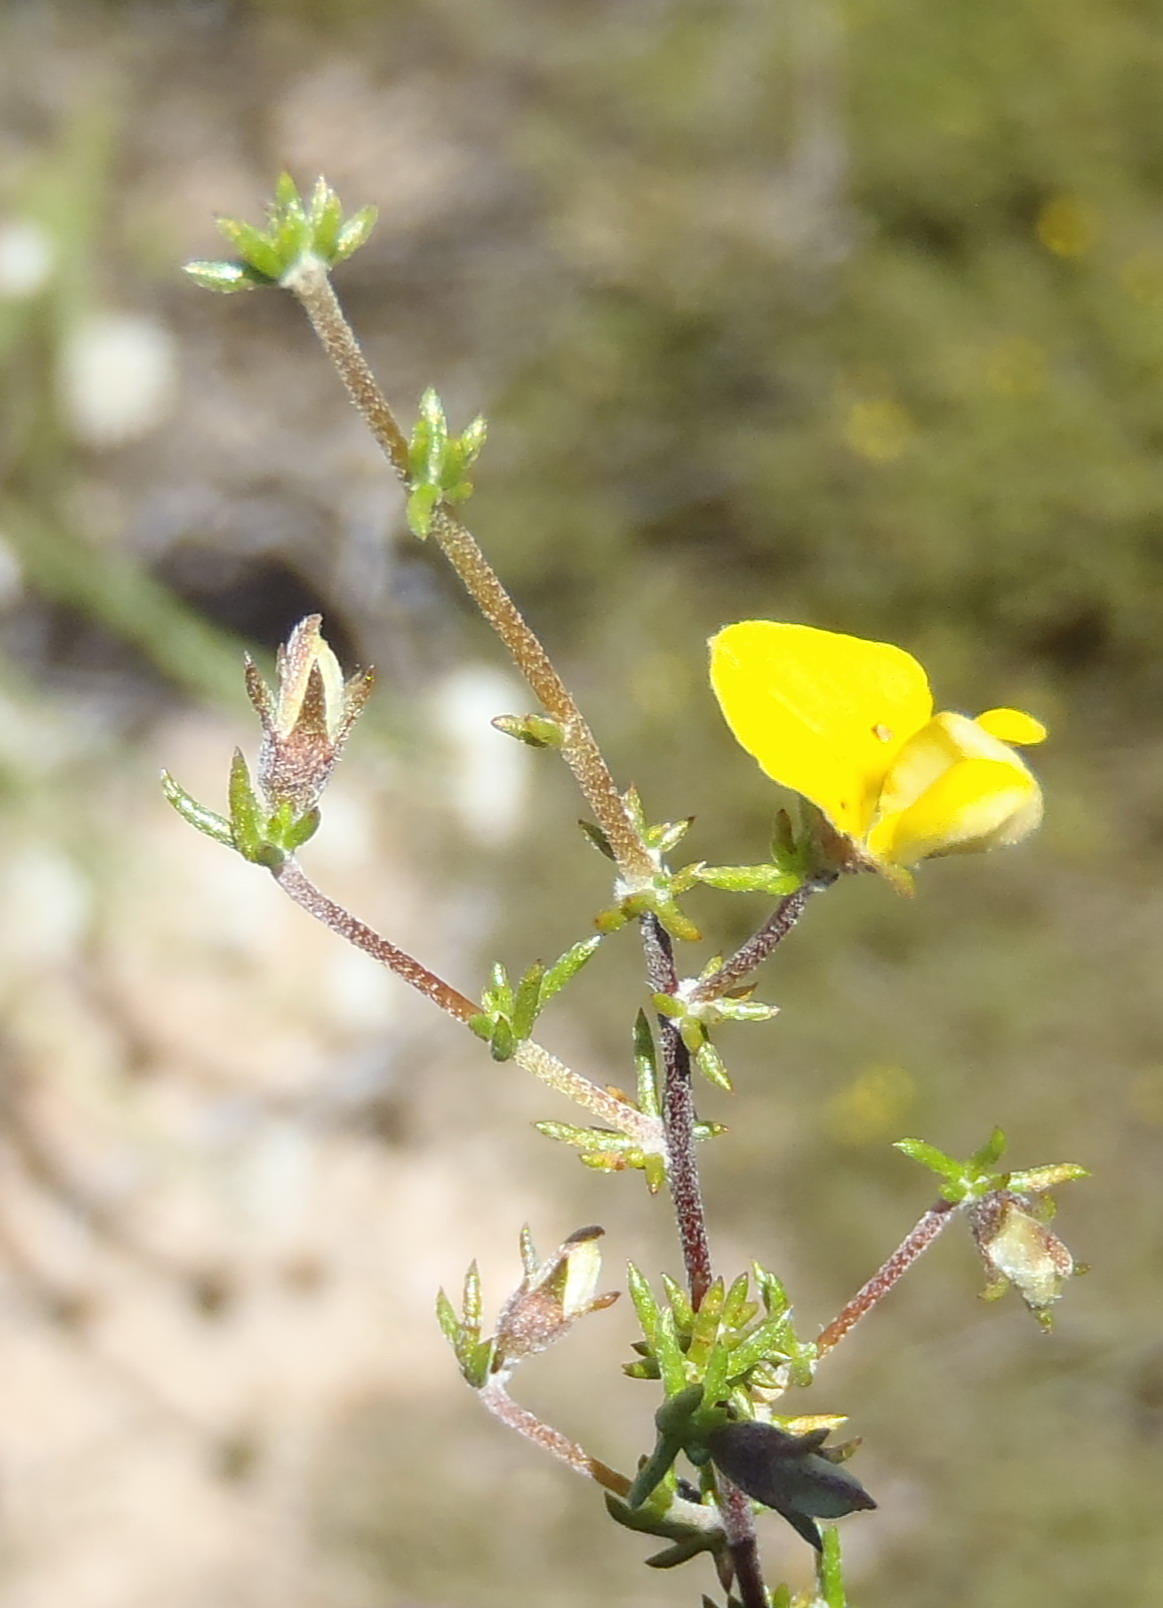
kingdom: Plantae
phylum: Tracheophyta
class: Magnoliopsida
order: Fabales
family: Fabaceae
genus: Aspalathus
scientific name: Aspalathus rubens
